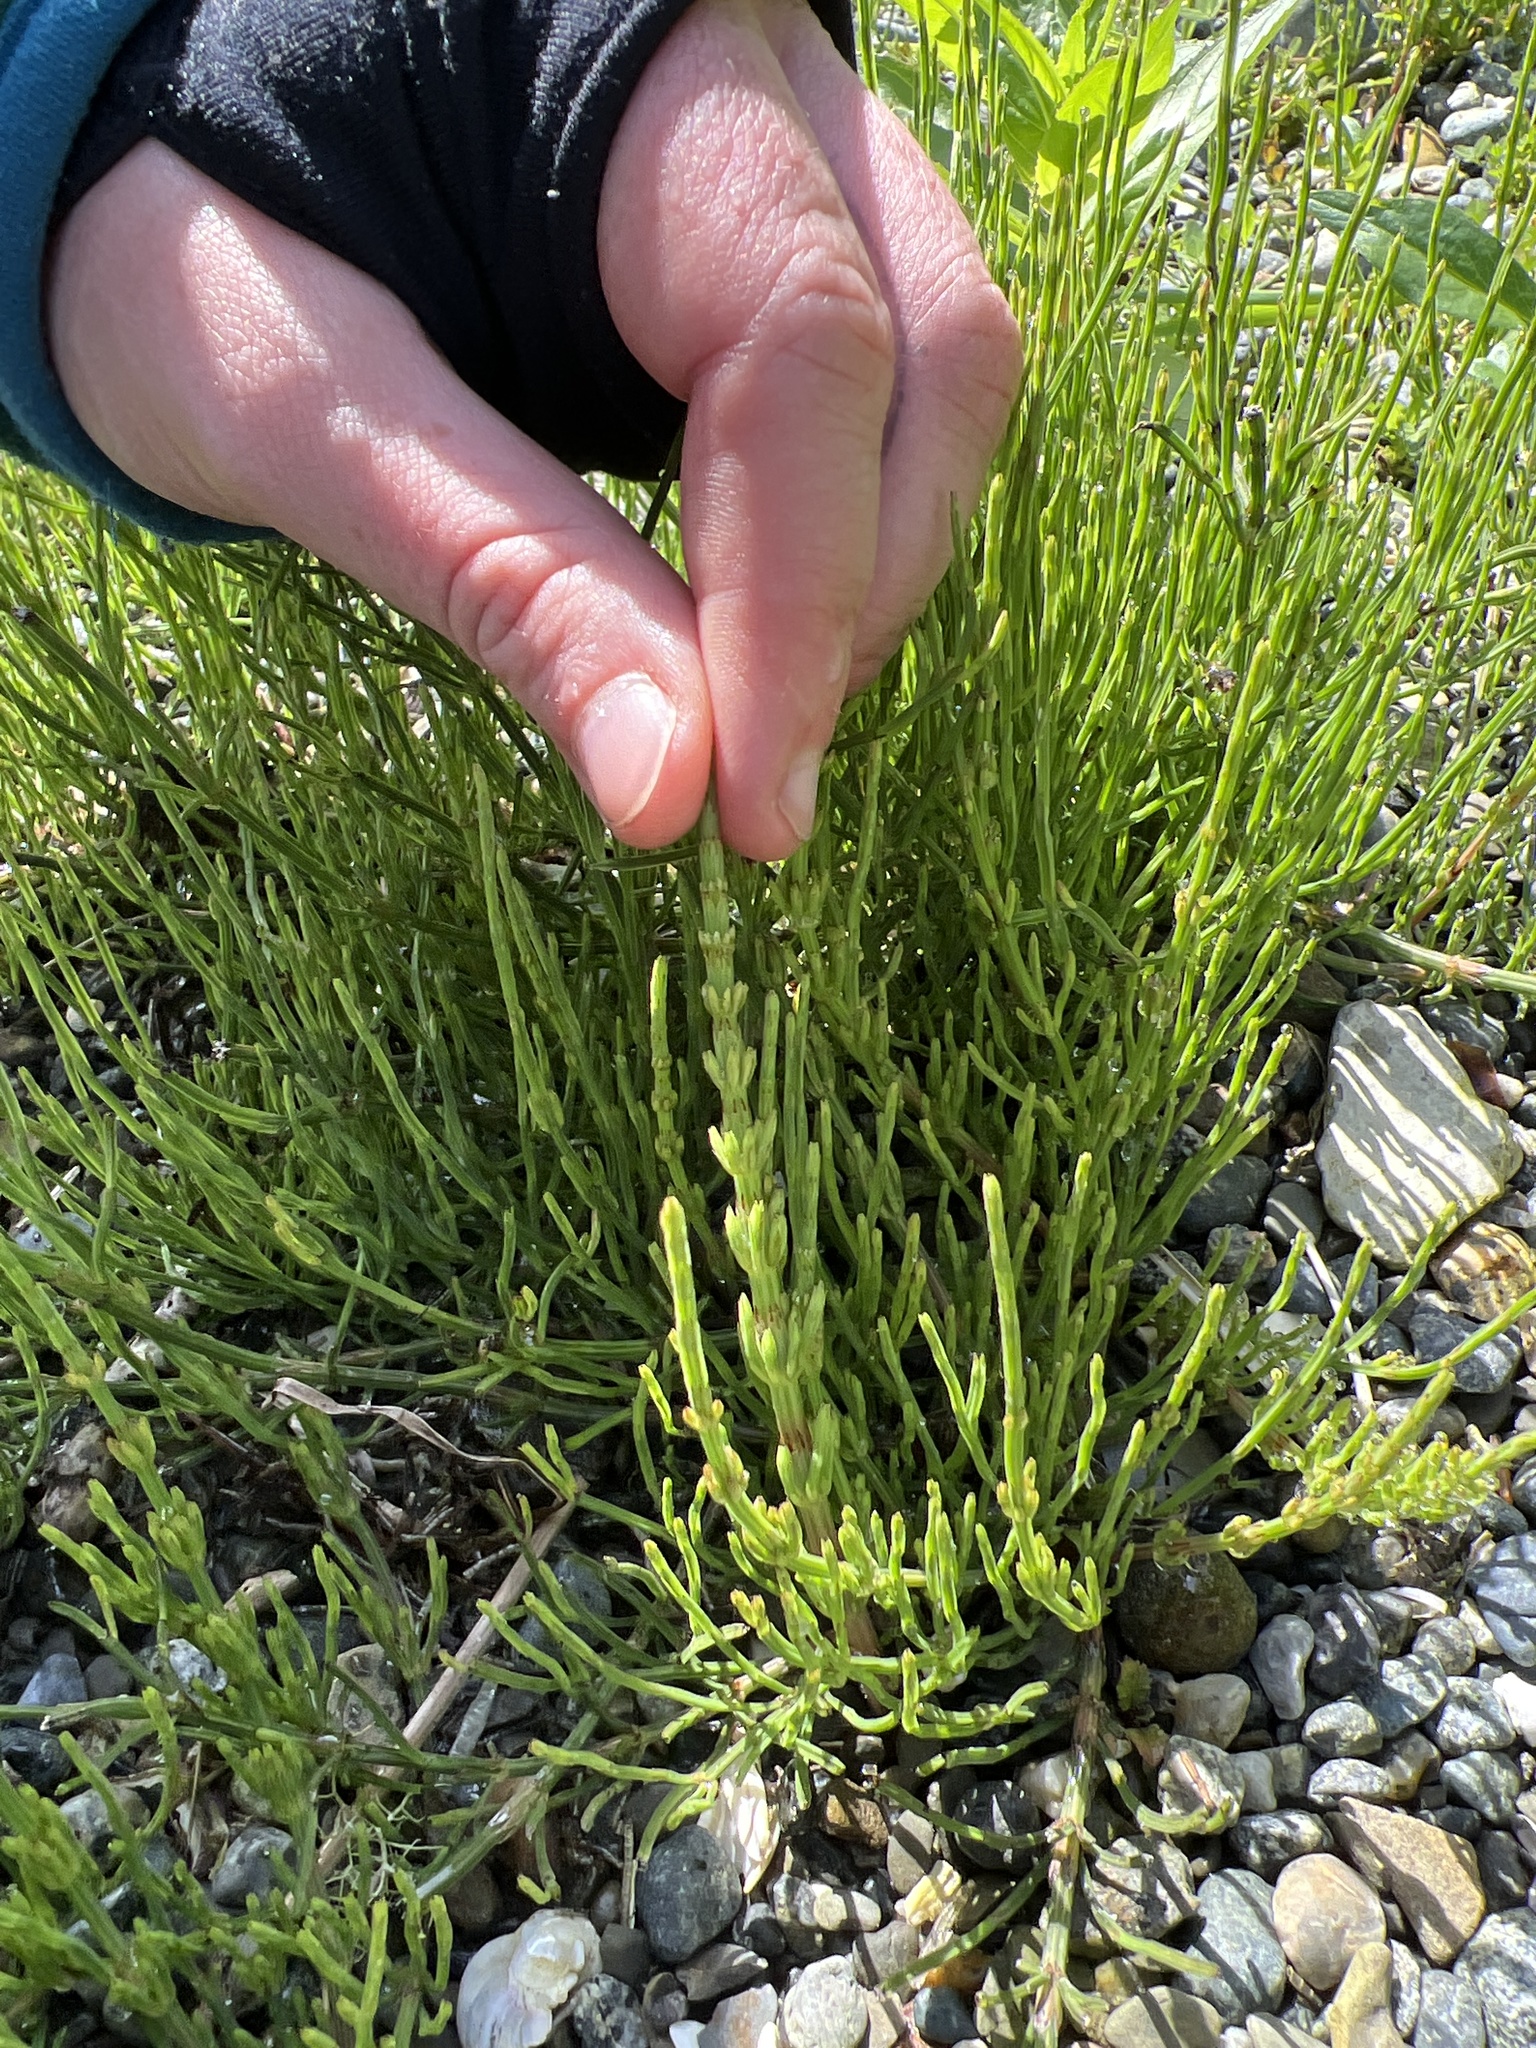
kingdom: Plantae
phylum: Tracheophyta
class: Polypodiopsida
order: Equisetales
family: Equisetaceae
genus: Equisetum
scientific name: Equisetum arvense
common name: Field horsetail
